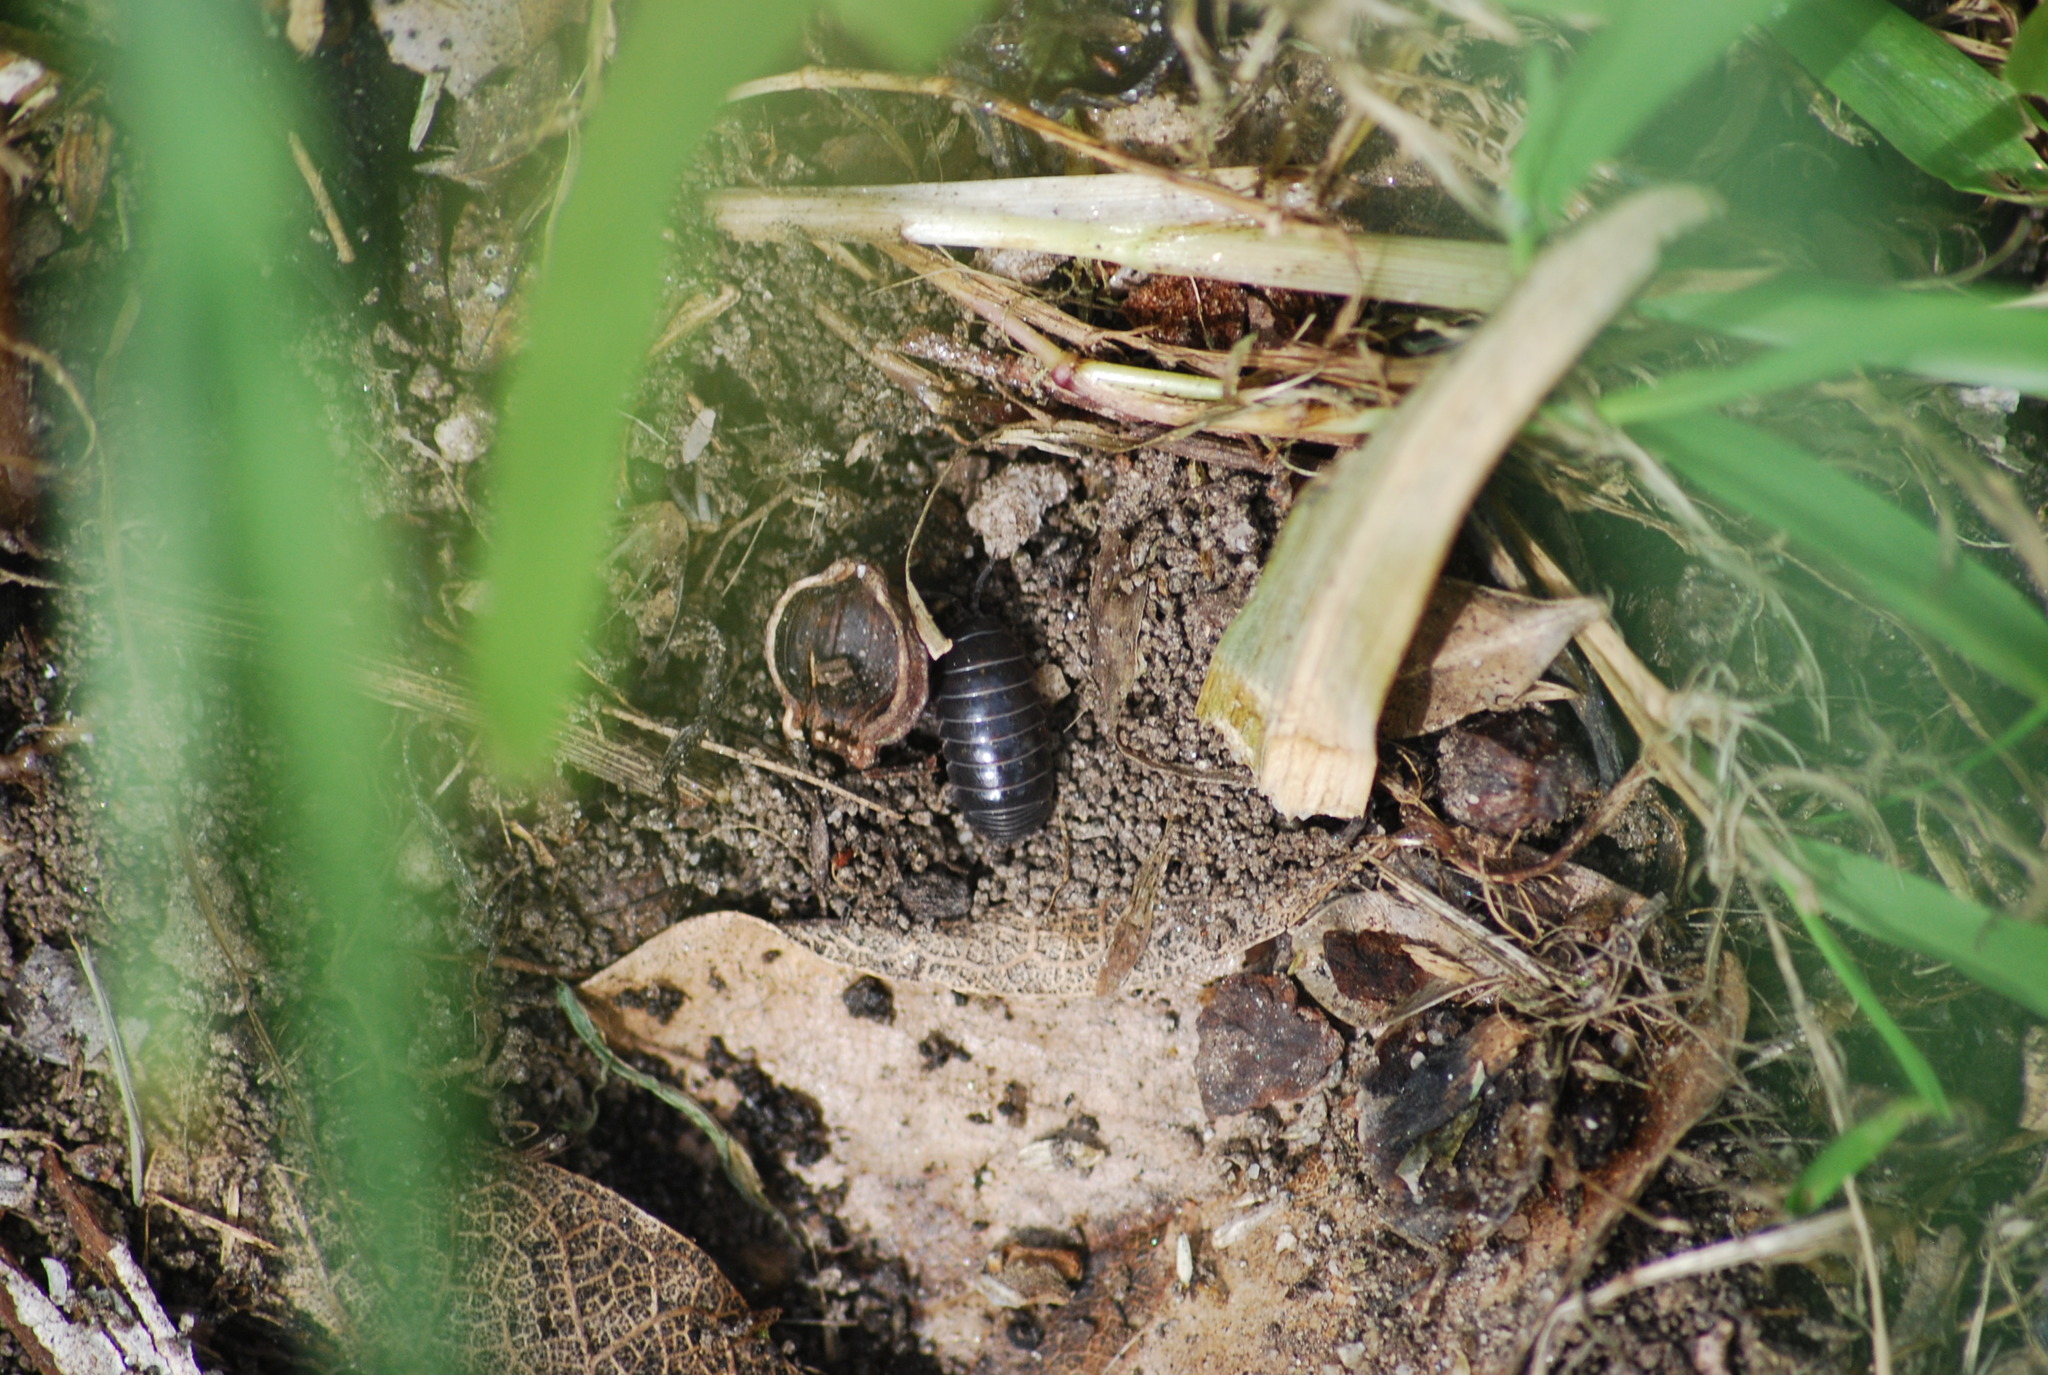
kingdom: Animalia
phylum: Arthropoda
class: Malacostraca
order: Isopoda
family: Armadillidiidae
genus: Armadillidium
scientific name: Armadillidium vulgare
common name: Common pill woodlouse
